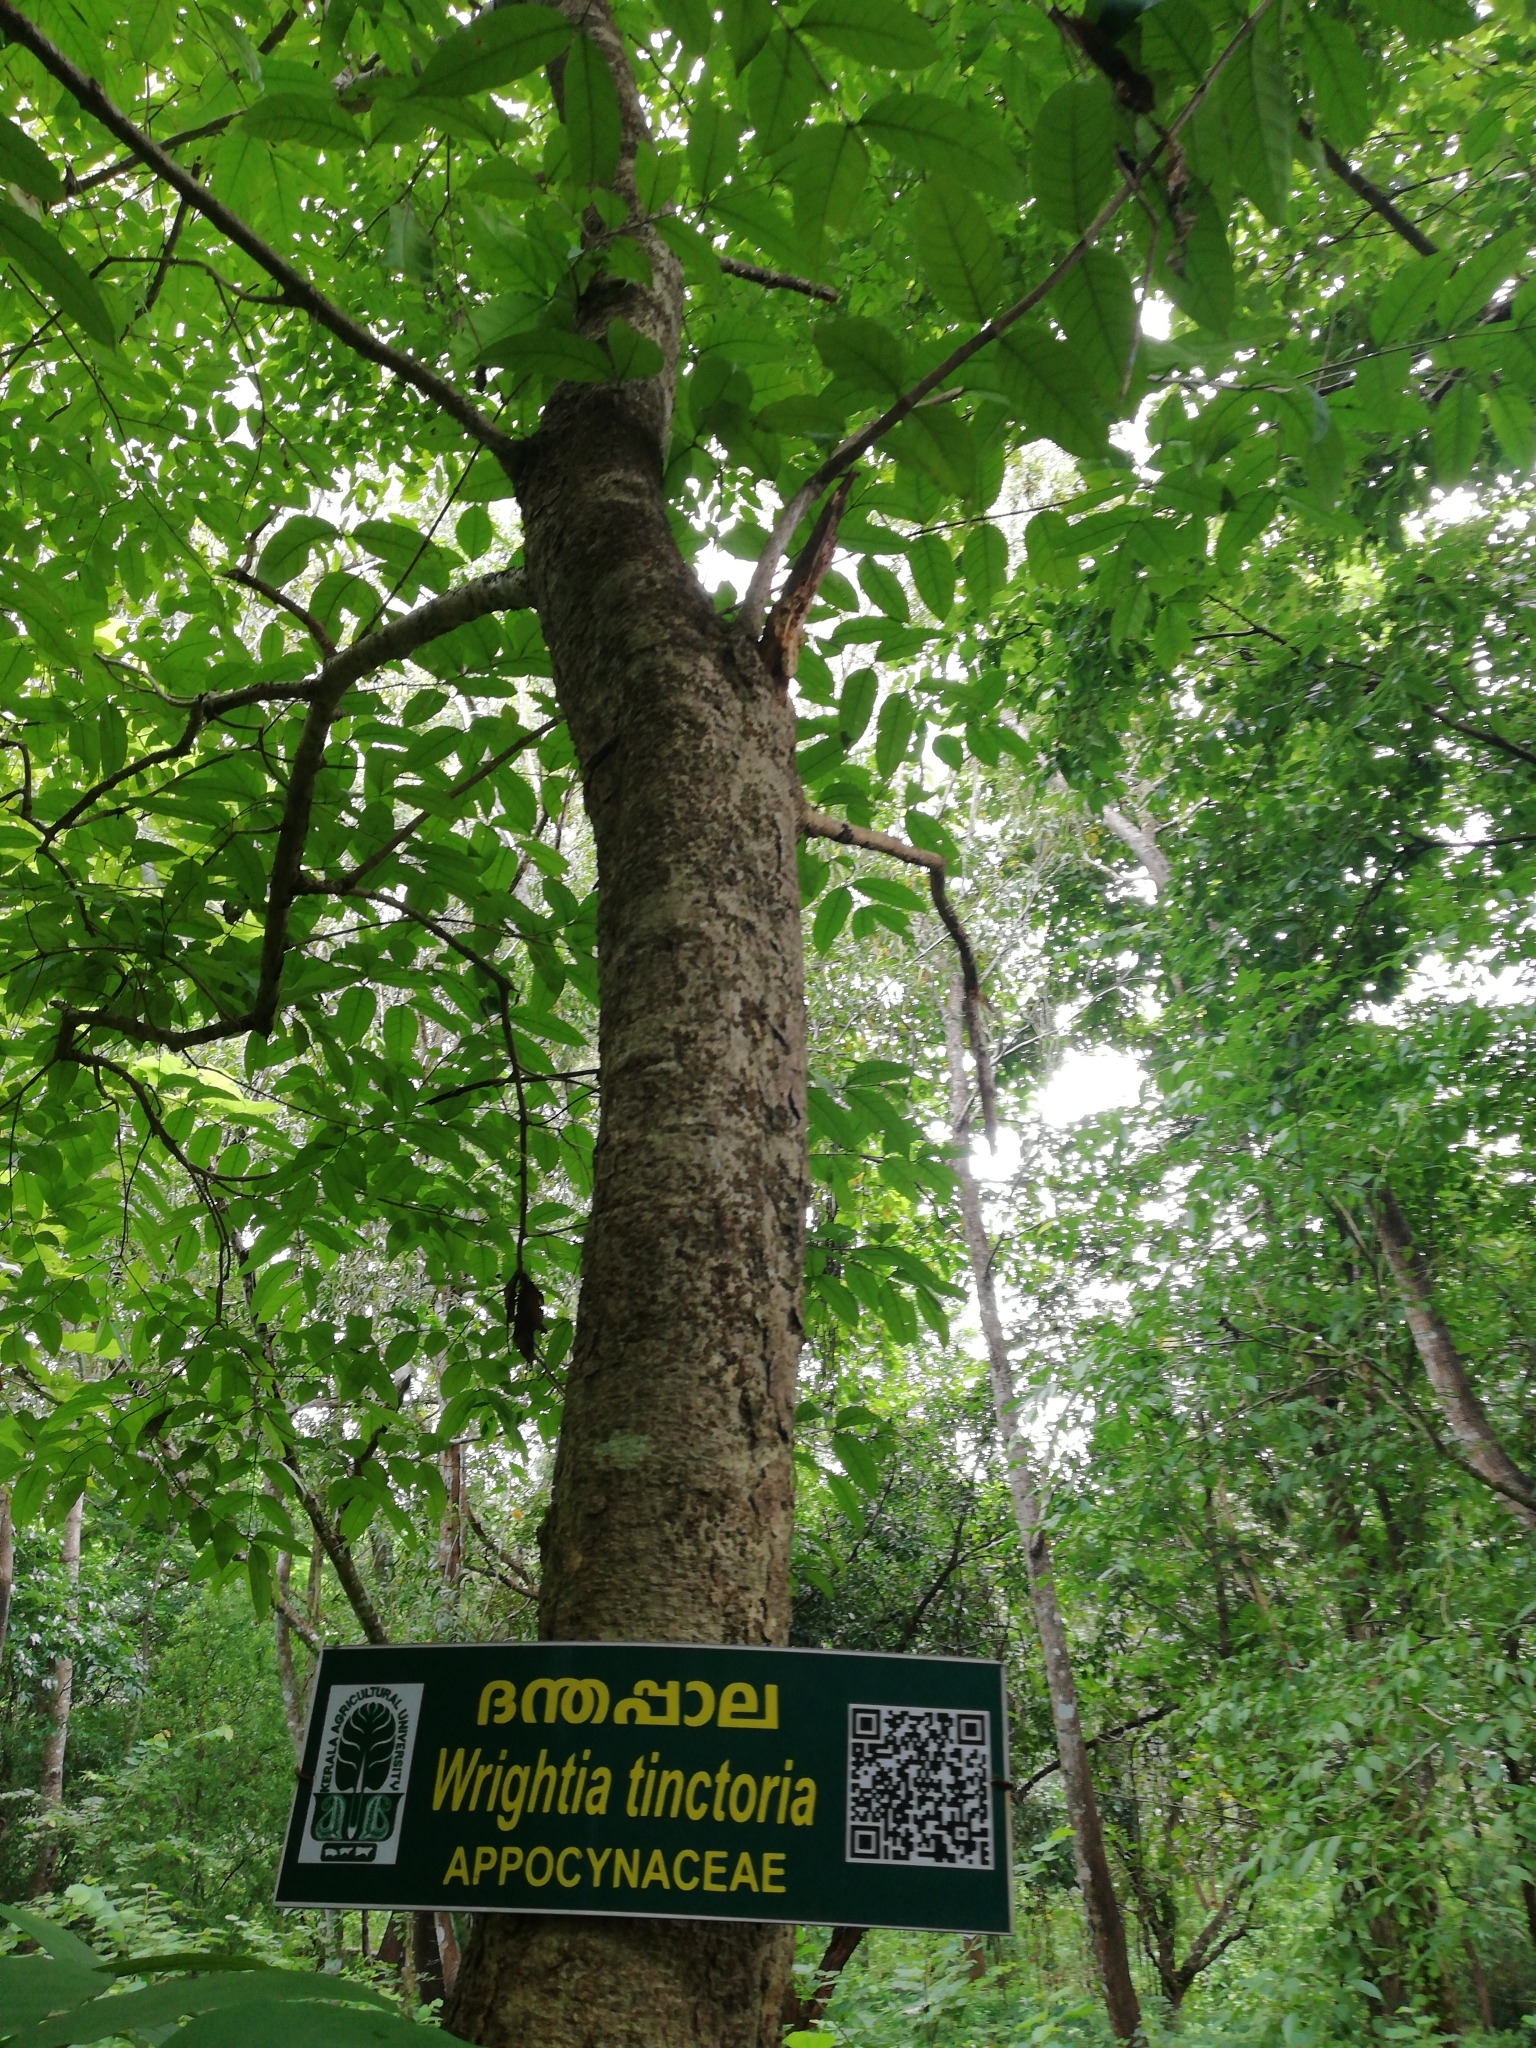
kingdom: Plantae
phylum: Tracheophyta
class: Magnoliopsida
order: Gentianales
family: Apocynaceae
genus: Wrightia
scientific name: Wrightia tinctoria
